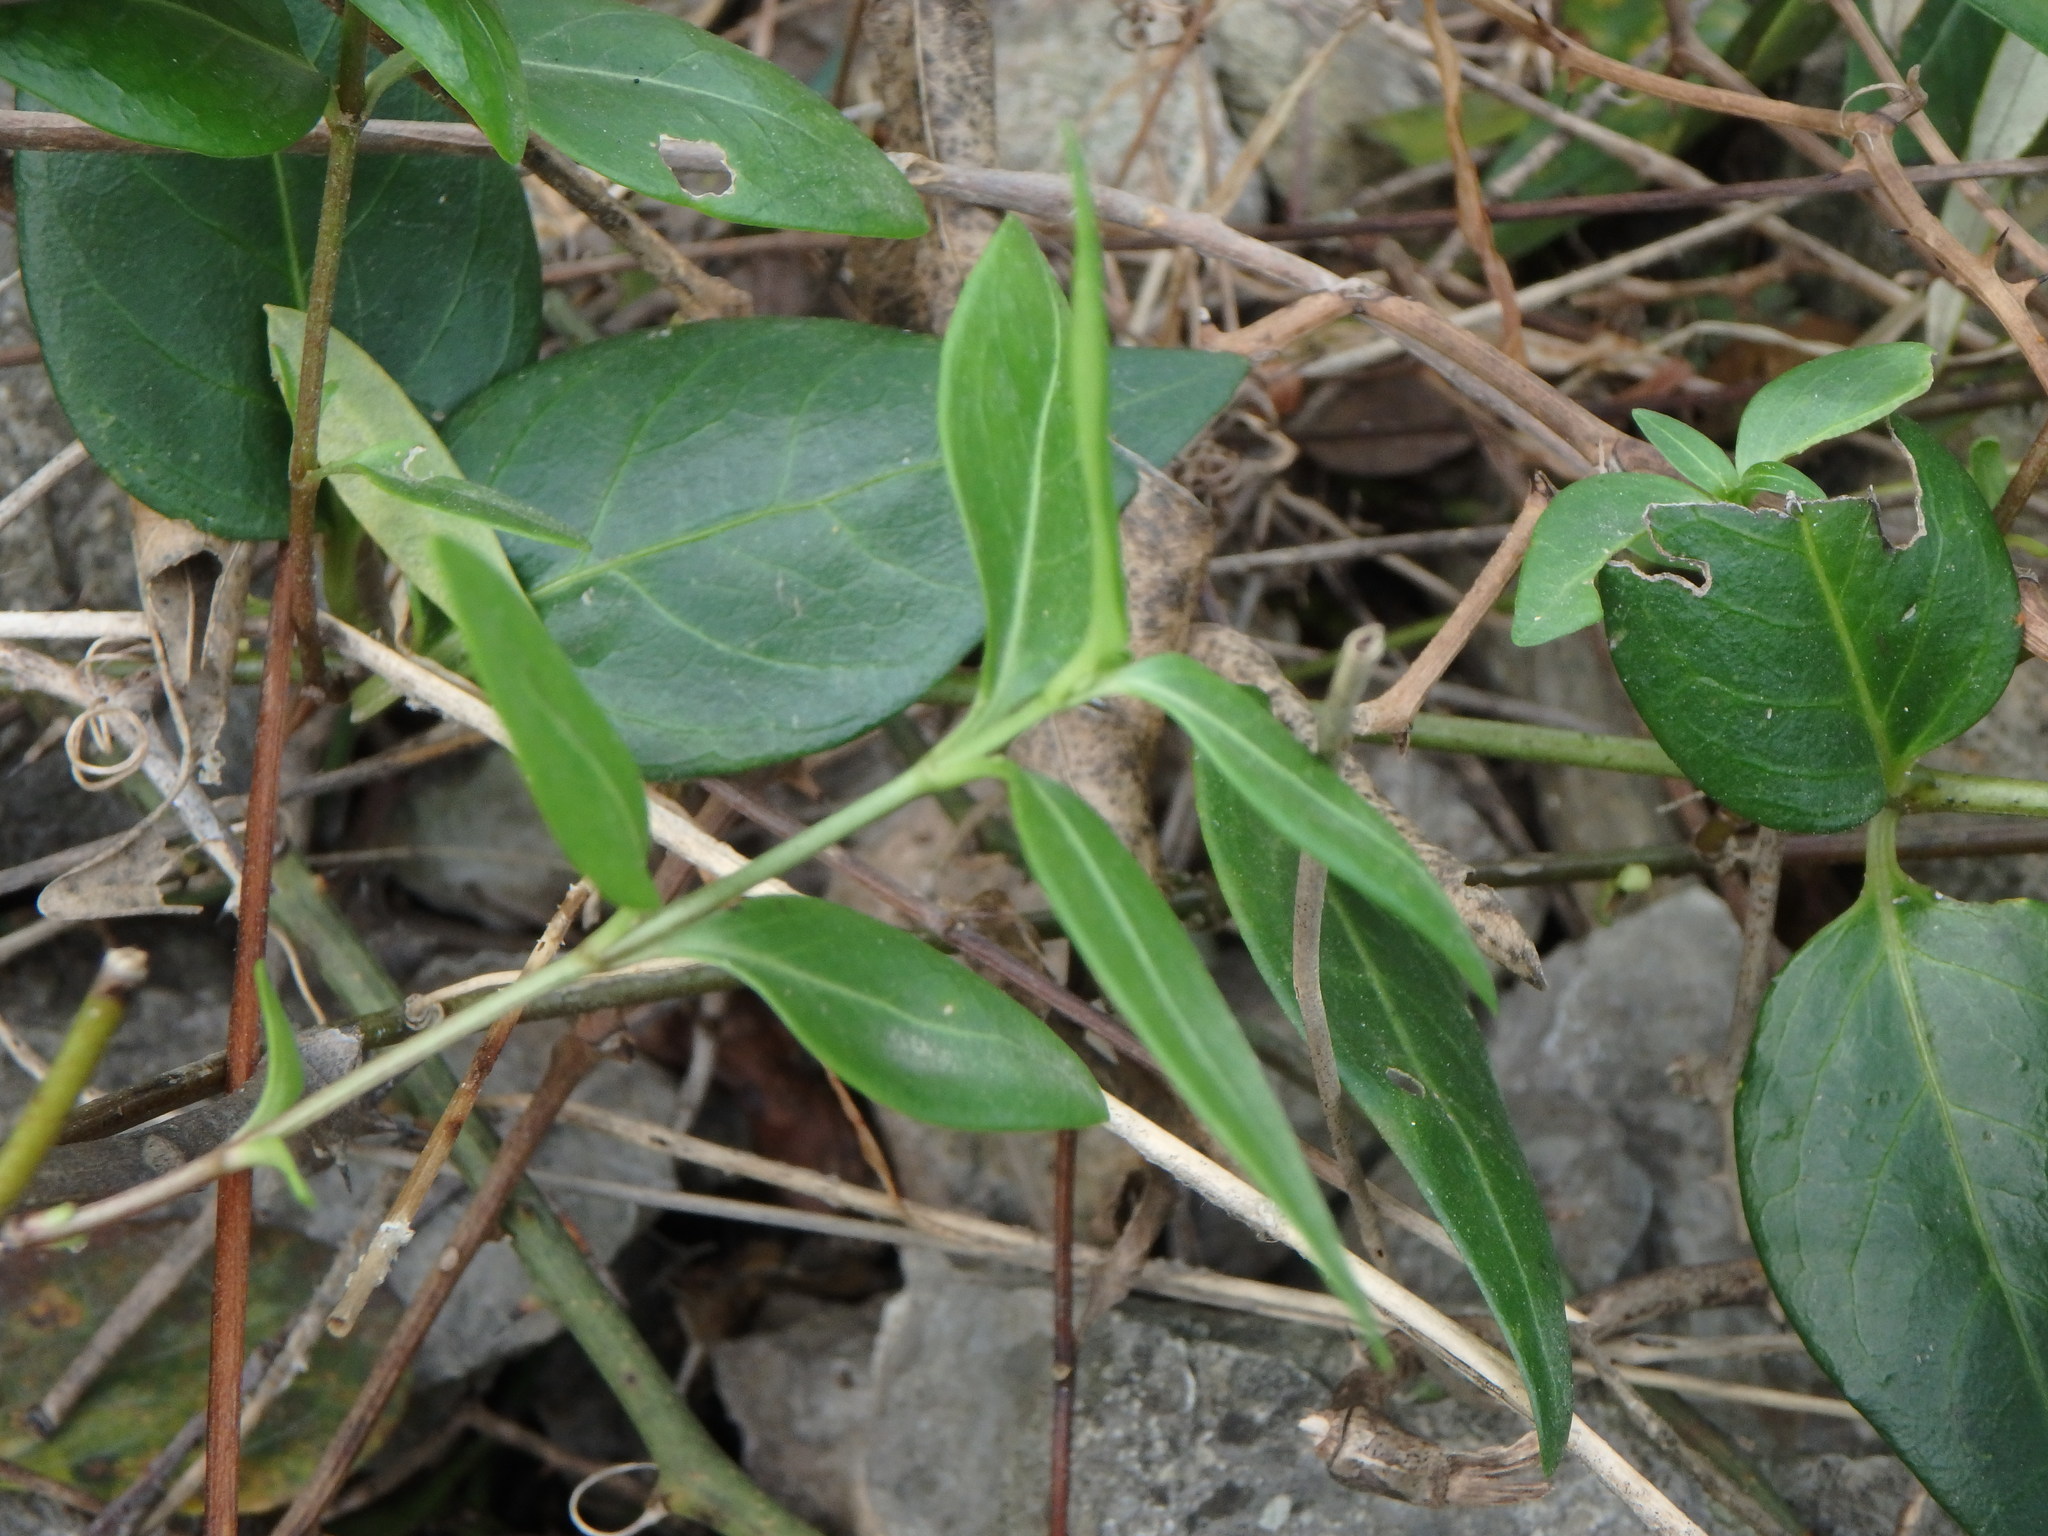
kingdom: Plantae
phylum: Tracheophyta
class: Magnoliopsida
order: Gentianales
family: Apocynaceae
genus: Vinca
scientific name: Vinca difformis
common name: Intermediate periwinkle
